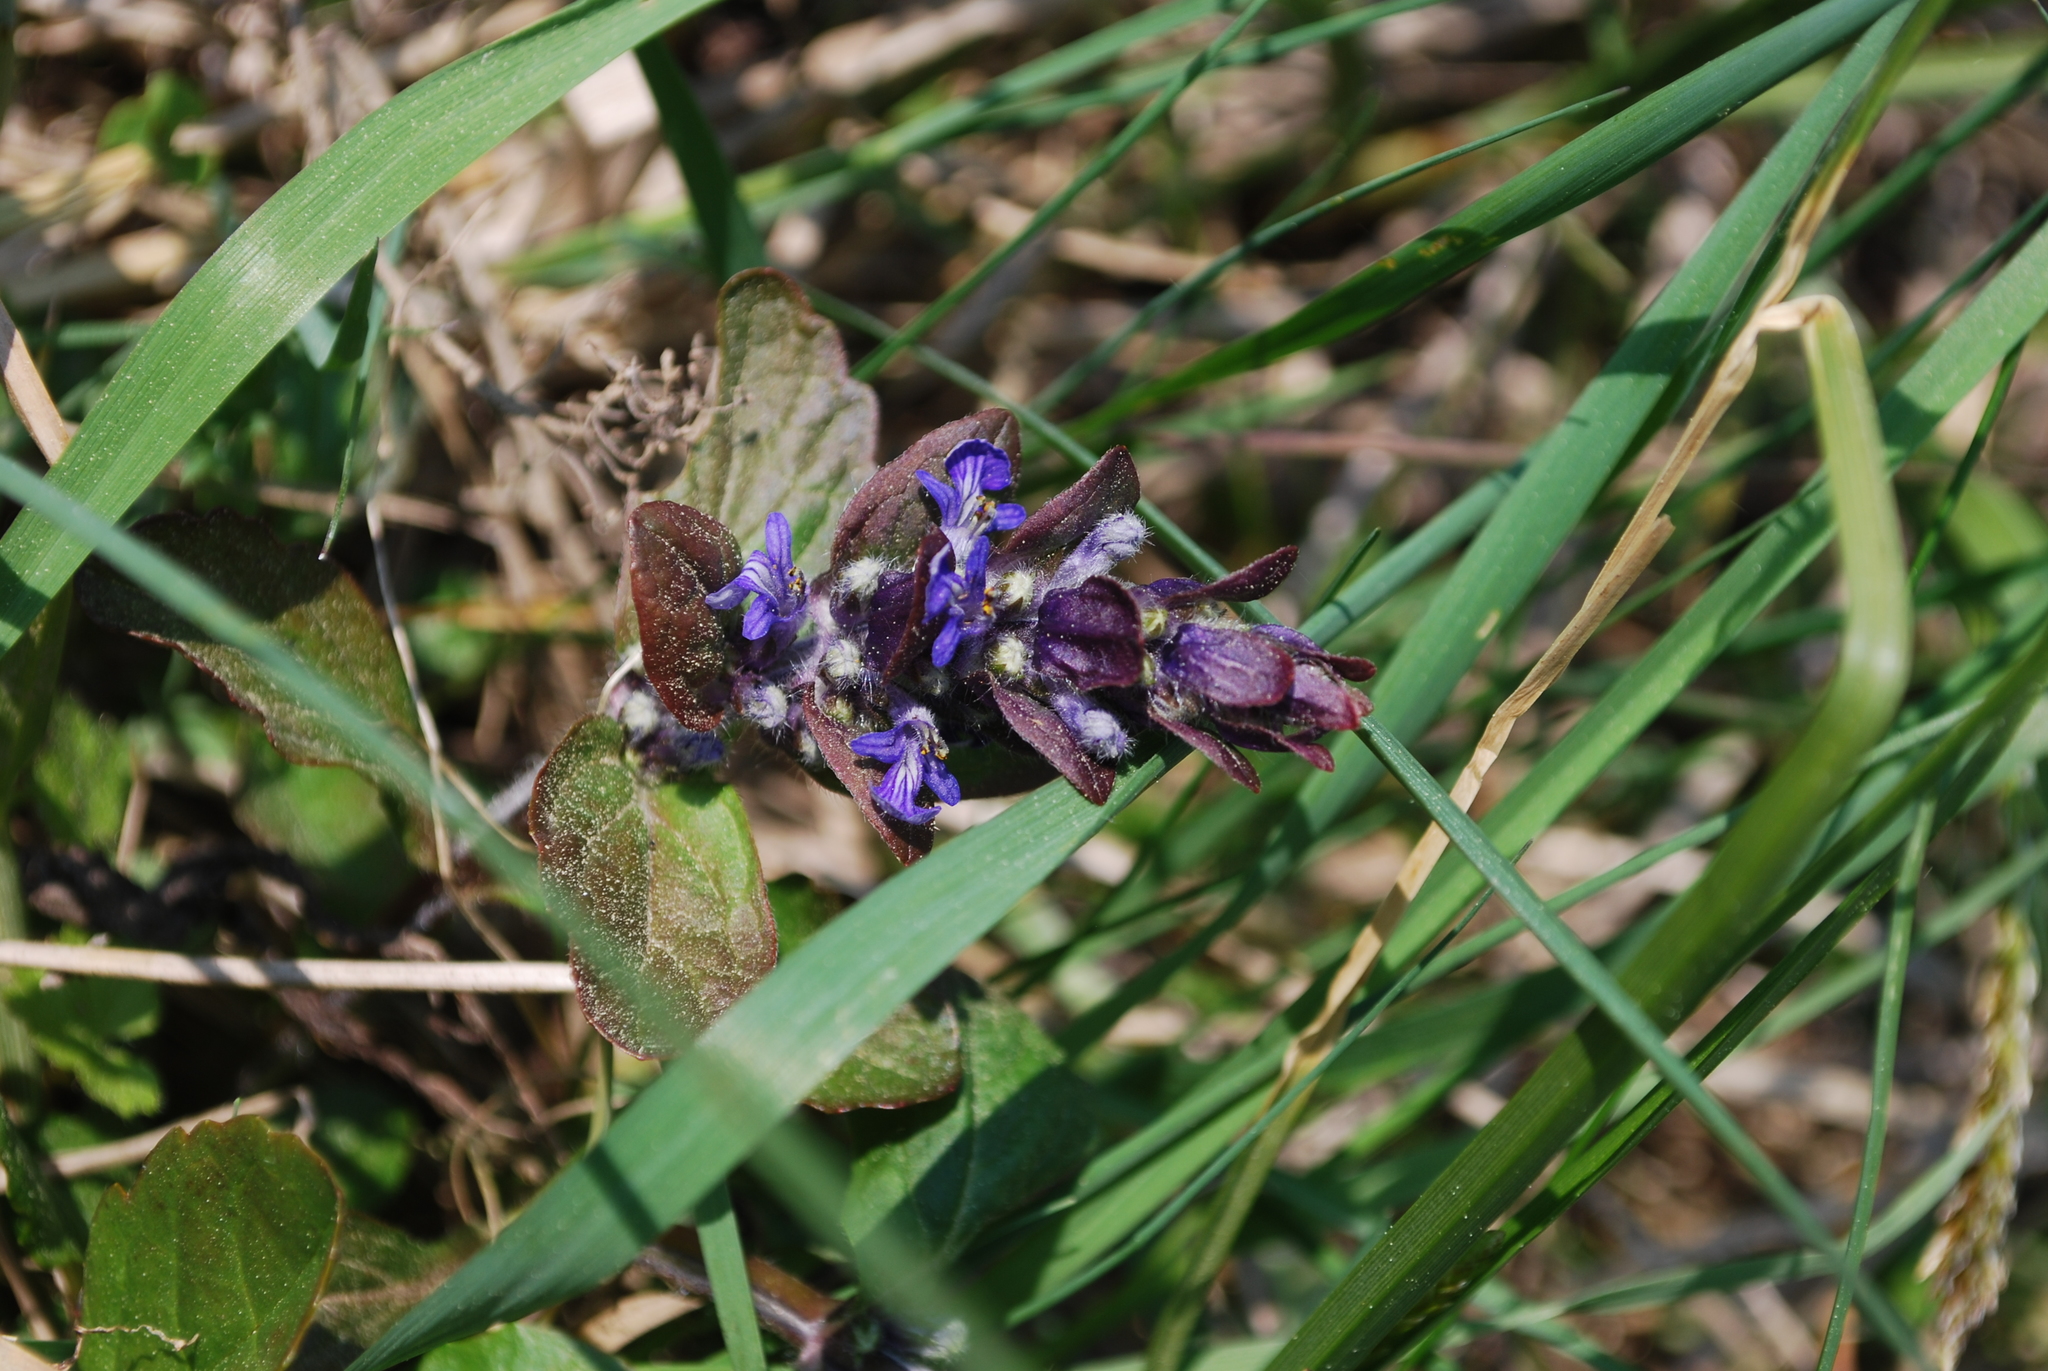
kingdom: Plantae
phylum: Tracheophyta
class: Magnoliopsida
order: Lamiales
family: Lamiaceae
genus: Ajuga
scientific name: Ajuga reptans
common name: Bugle
